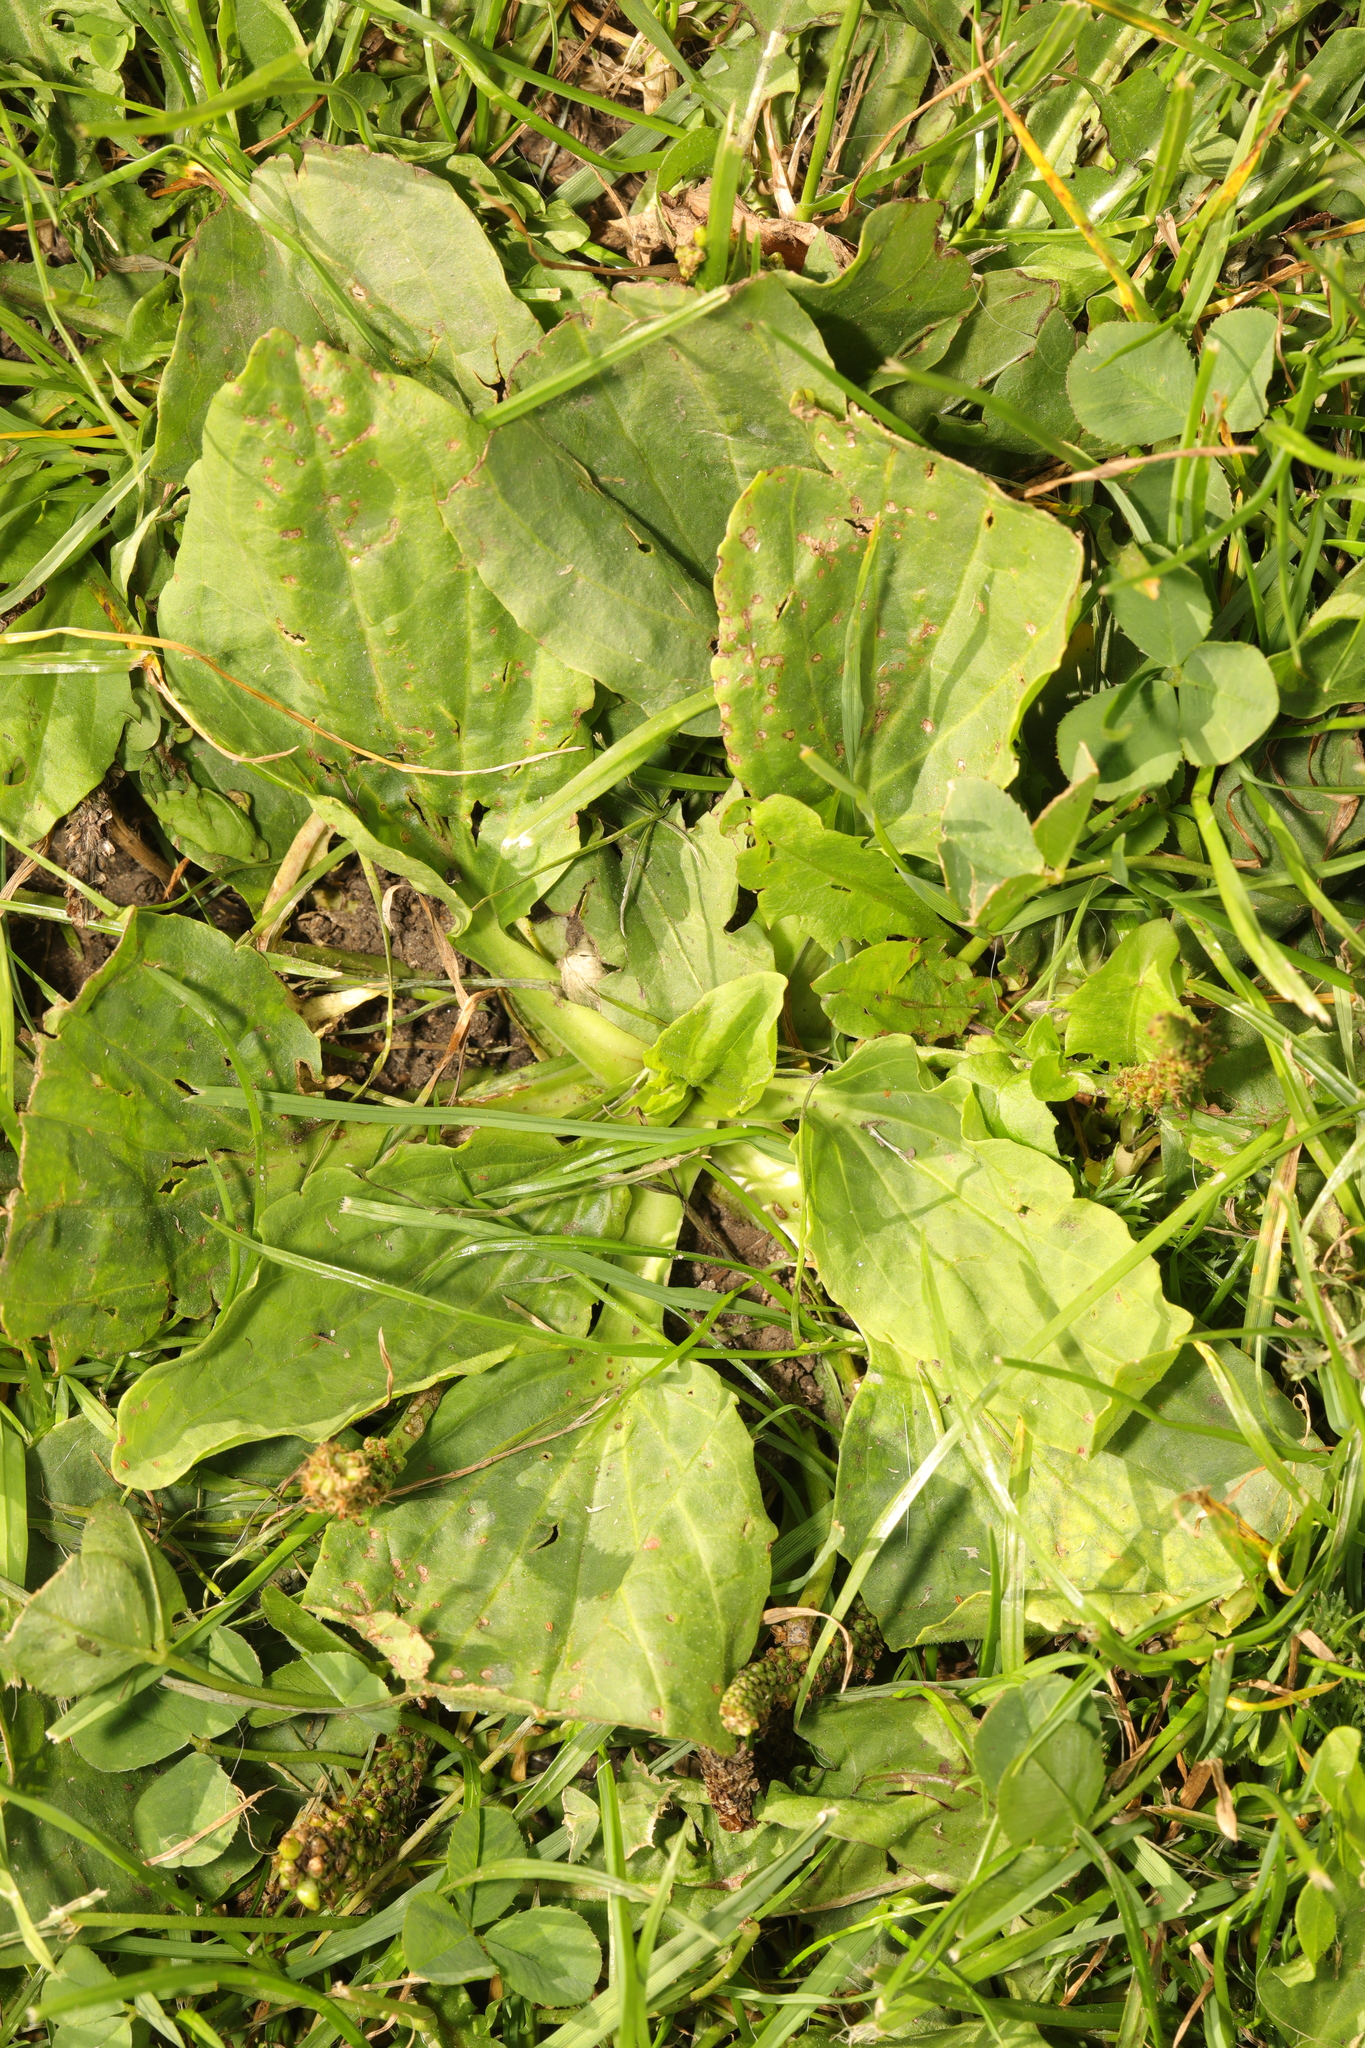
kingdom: Plantae
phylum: Tracheophyta
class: Magnoliopsida
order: Lamiales
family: Plantaginaceae
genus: Plantago
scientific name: Plantago major
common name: Common plantain
